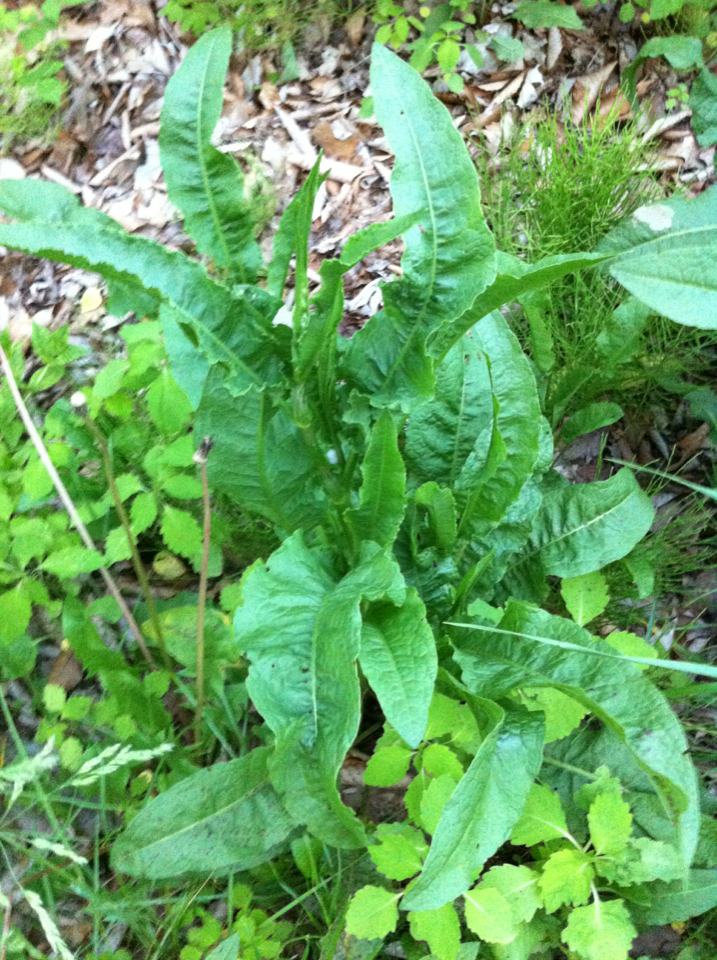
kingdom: Plantae
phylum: Tracheophyta
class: Magnoliopsida
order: Caryophyllales
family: Polygonaceae
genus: Rumex
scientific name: Rumex crispus
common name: Curled dock
